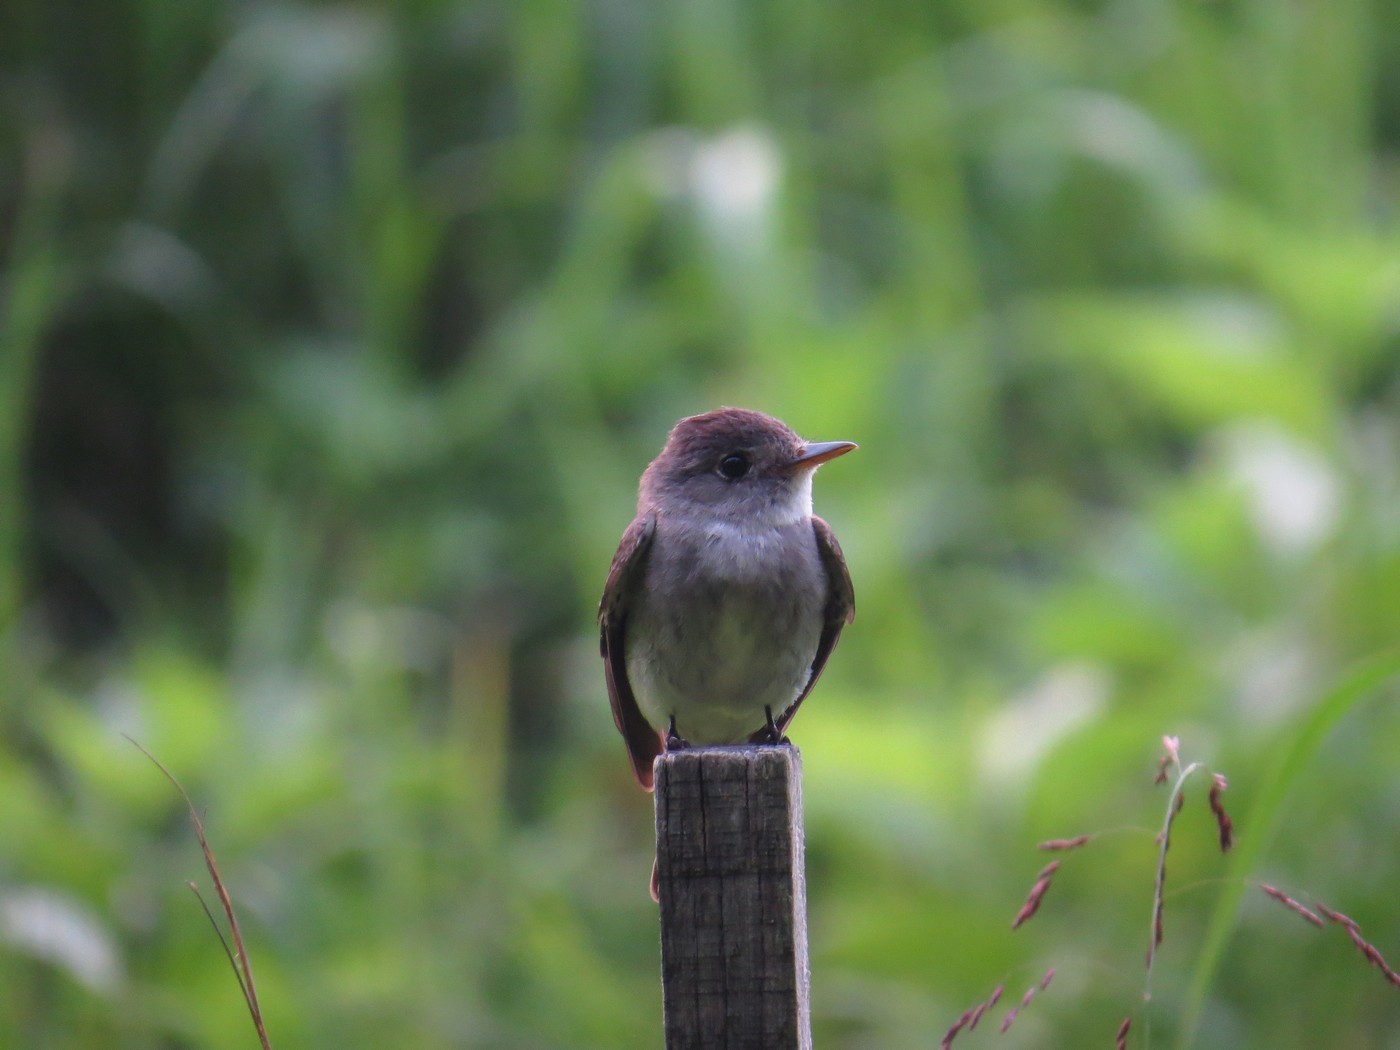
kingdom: Animalia
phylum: Chordata
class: Aves
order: Passeriformes
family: Tyrannidae
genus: Contopus
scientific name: Contopus virens
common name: Eastern wood-pewee
